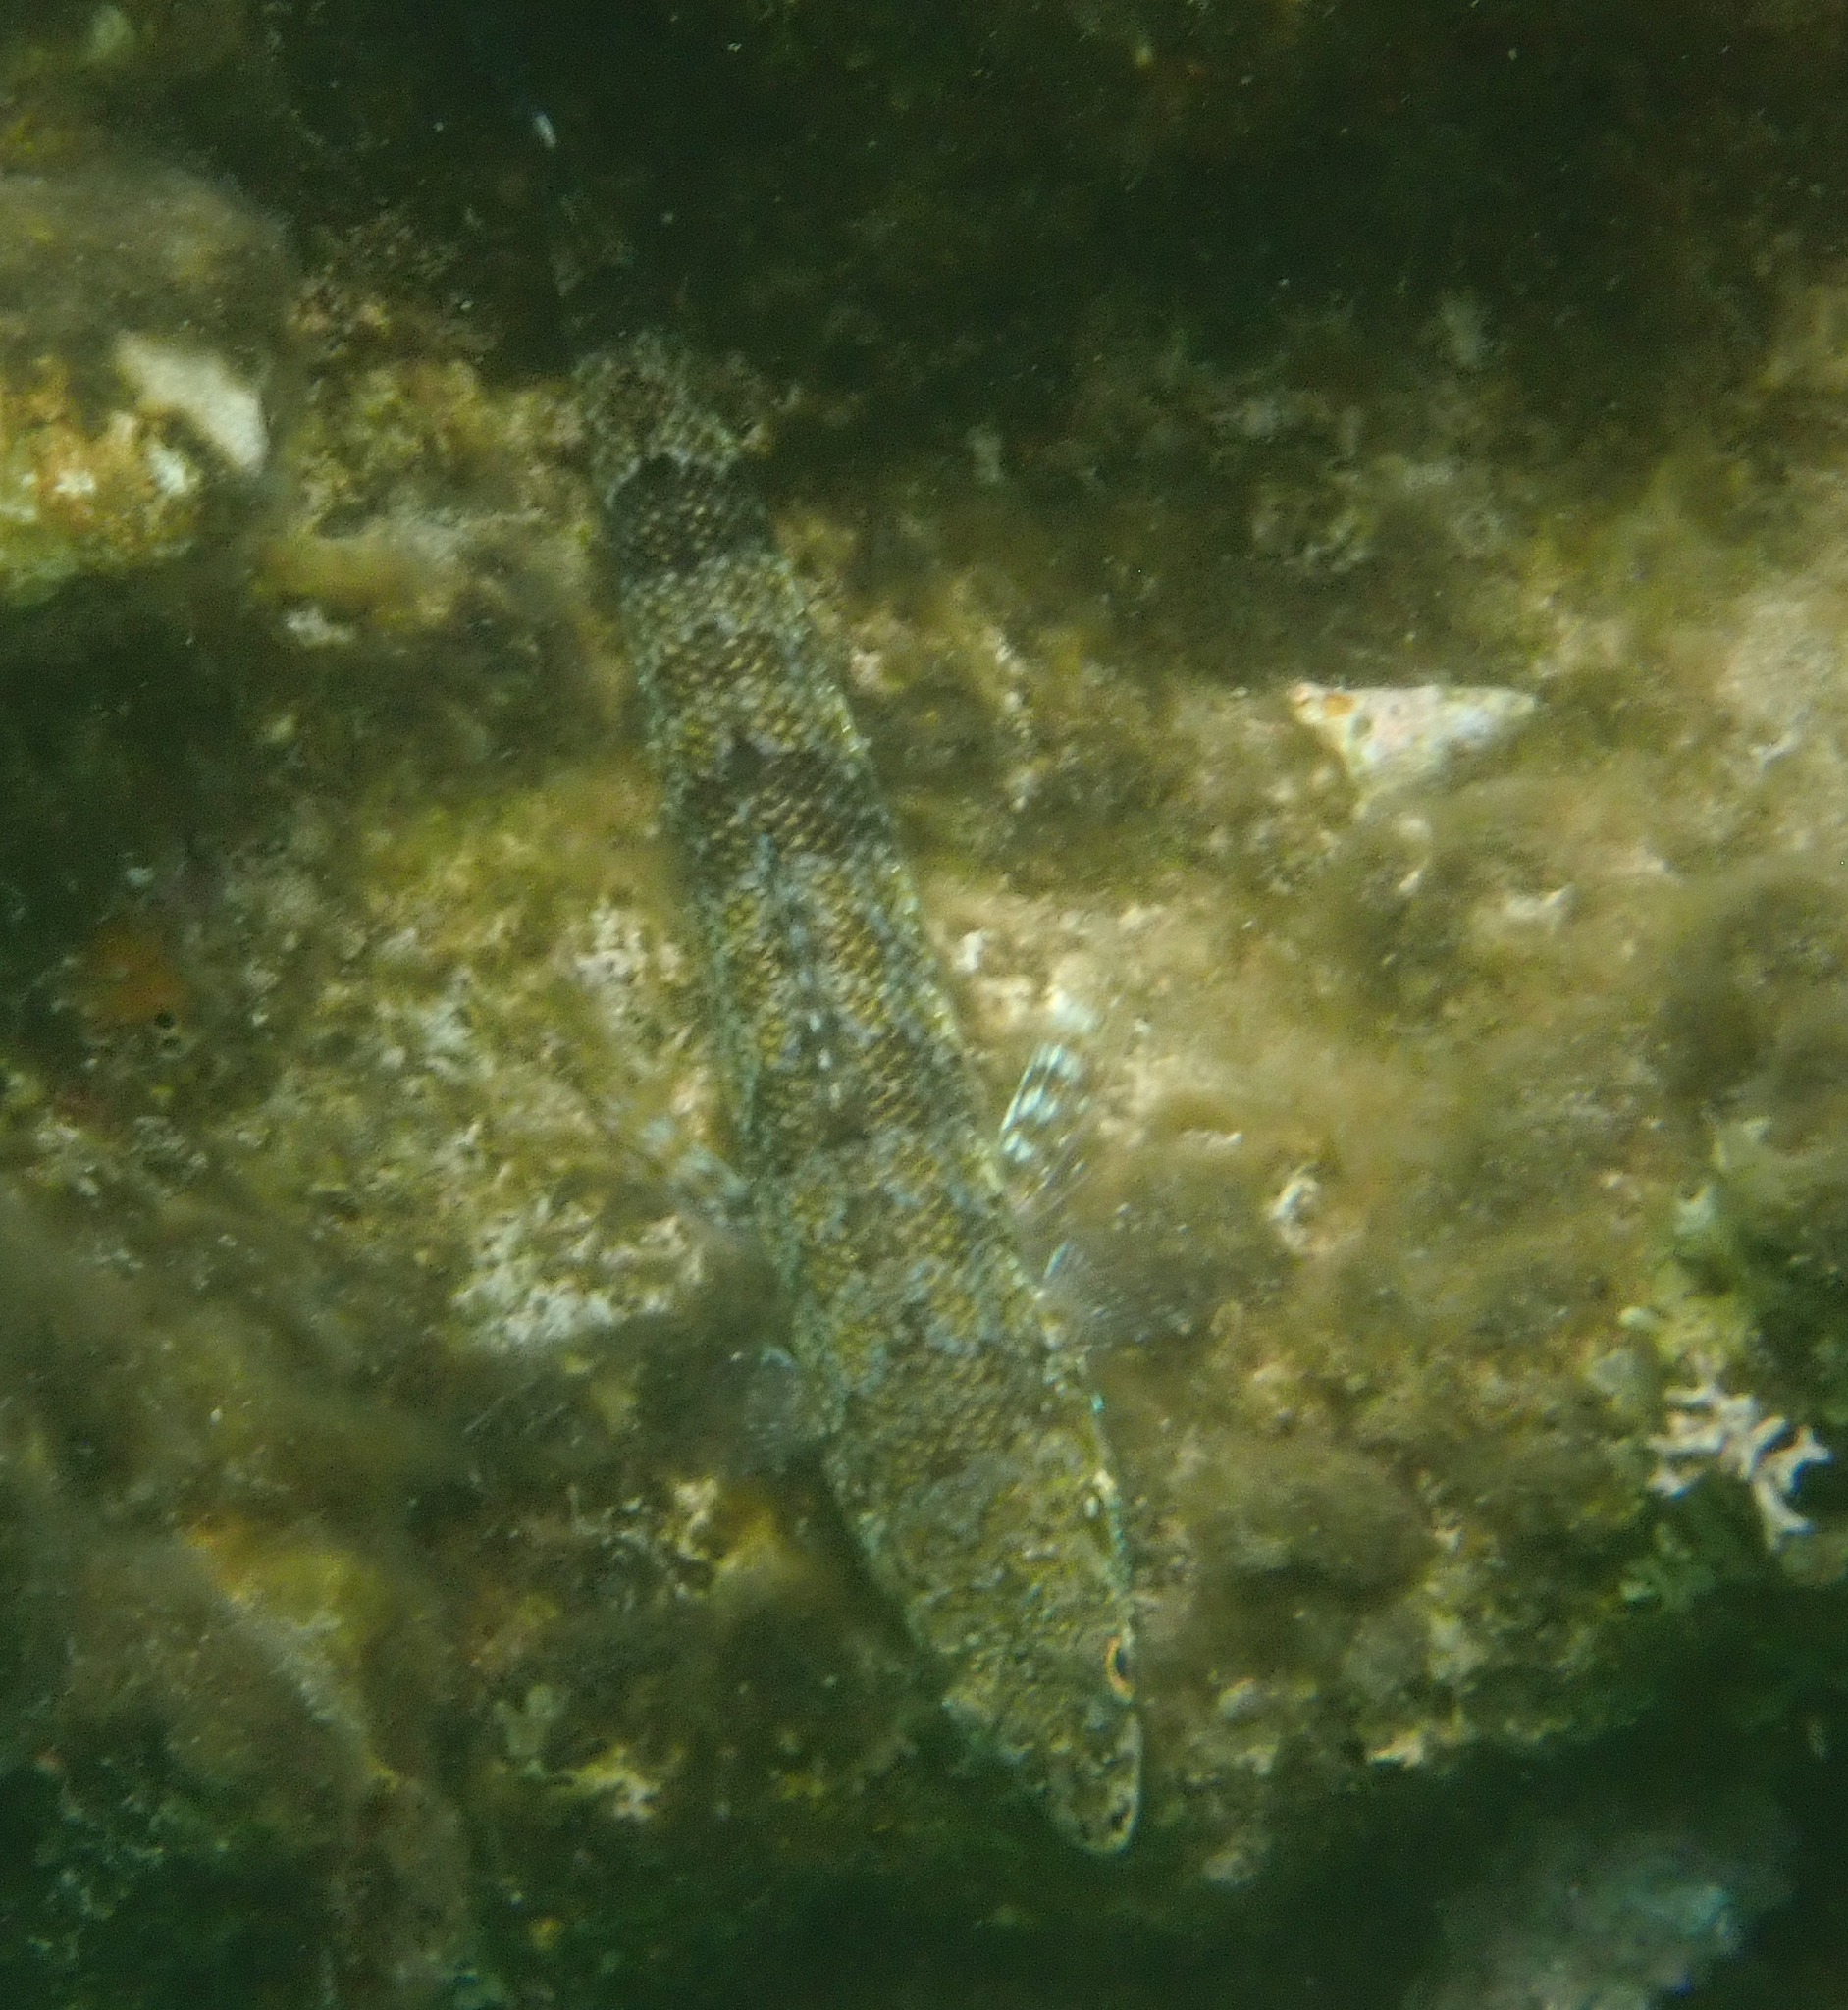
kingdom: Animalia
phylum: Chordata
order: Aulopiformes
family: Synodontidae
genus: Synodus
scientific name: Synodus variegatus
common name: Variegated lizardfish
